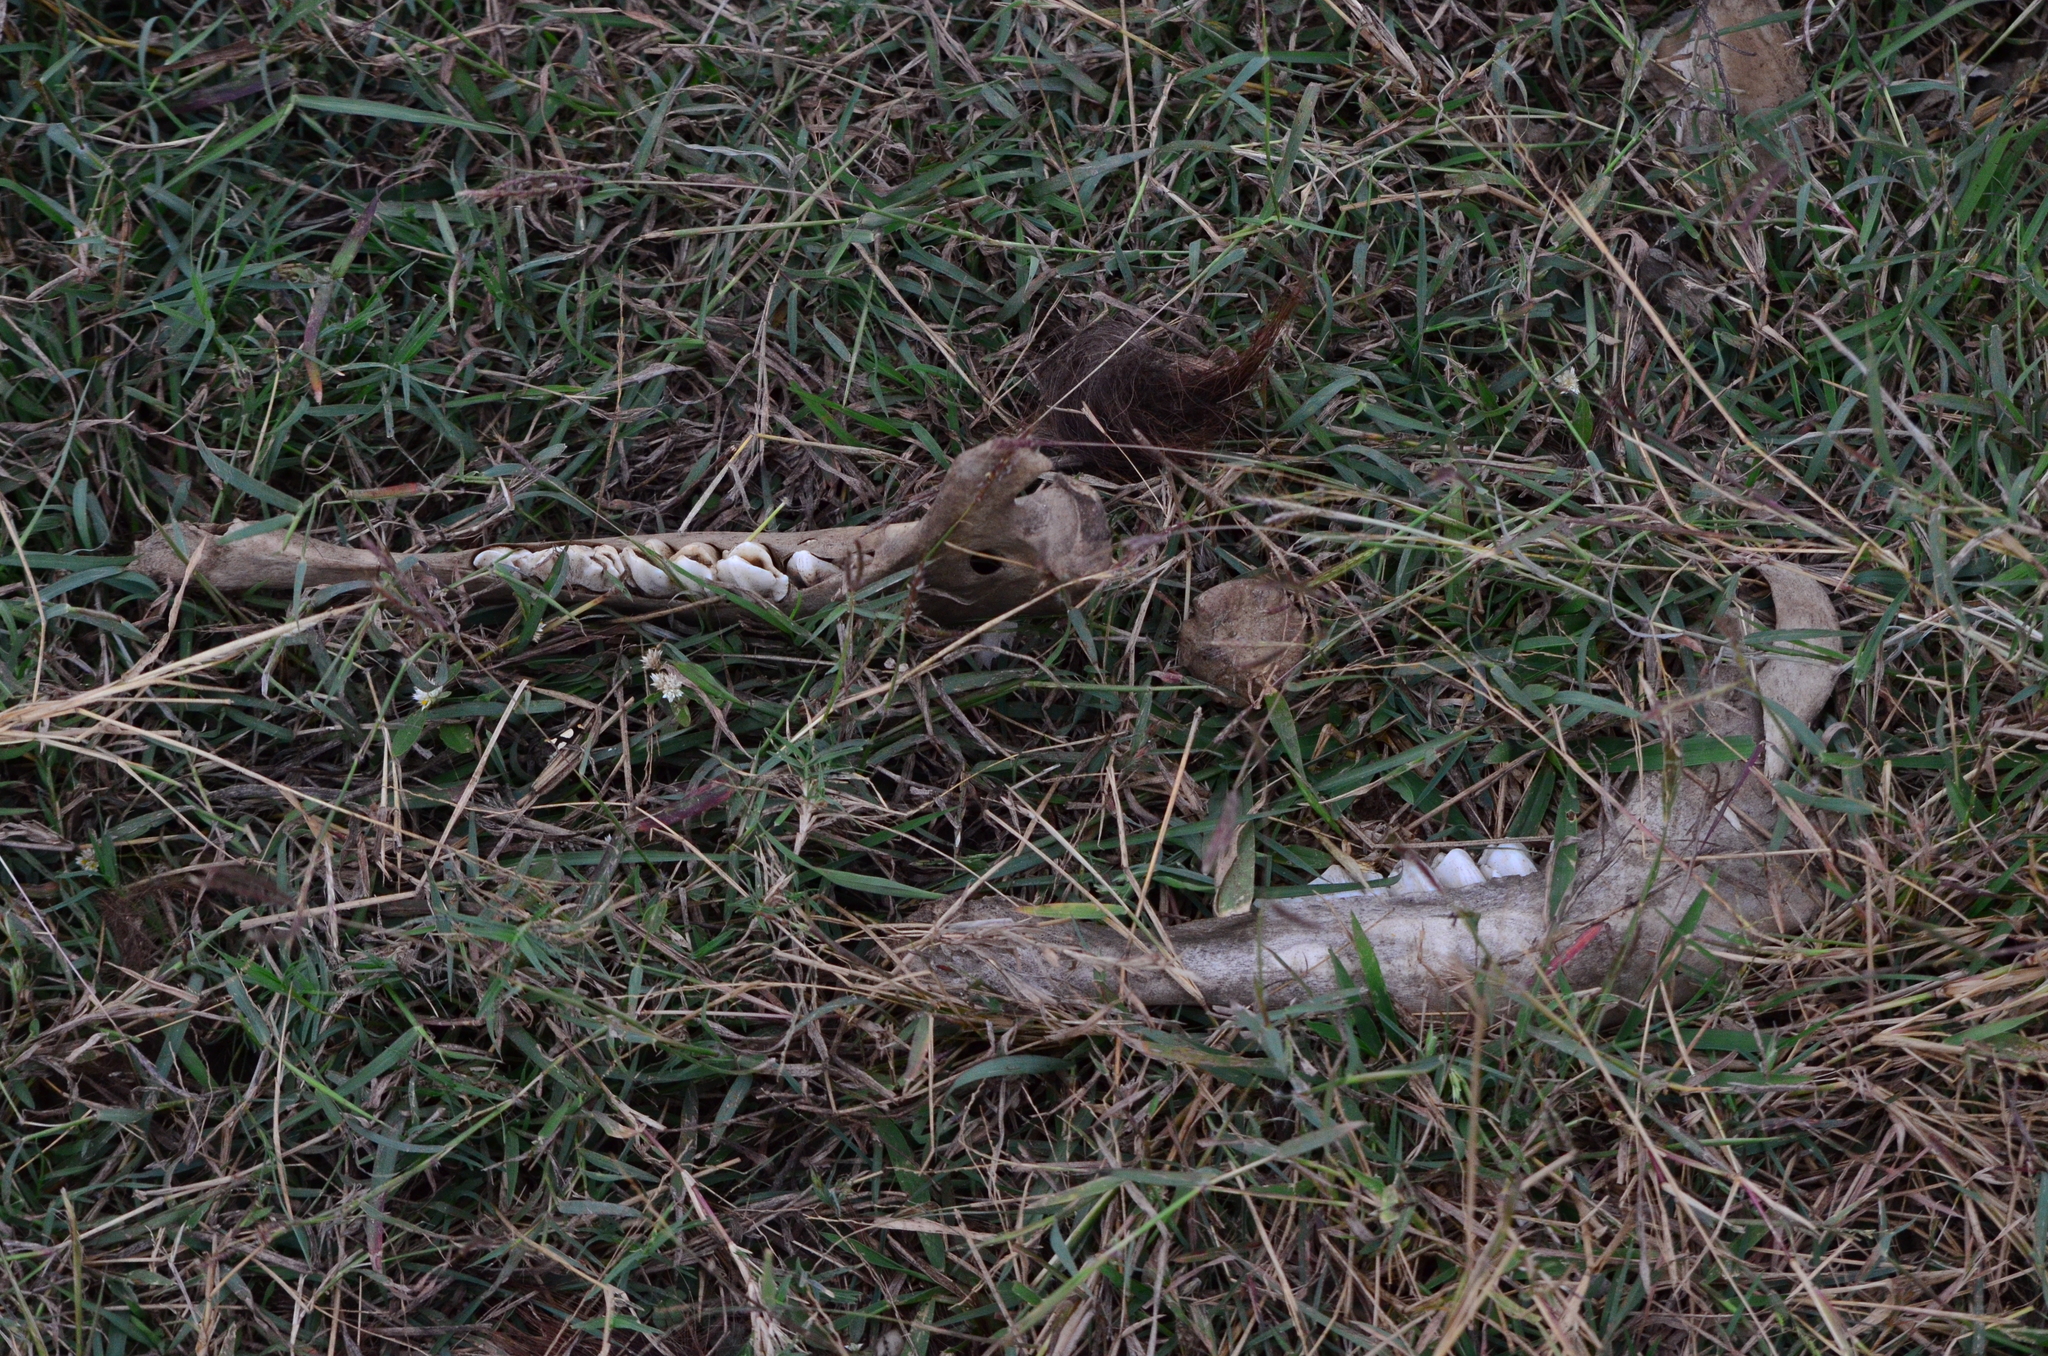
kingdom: Animalia
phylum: Chordata
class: Mammalia
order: Artiodactyla
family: Bovidae
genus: Bos
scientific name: Bos taurus
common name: Domesticated cattle
